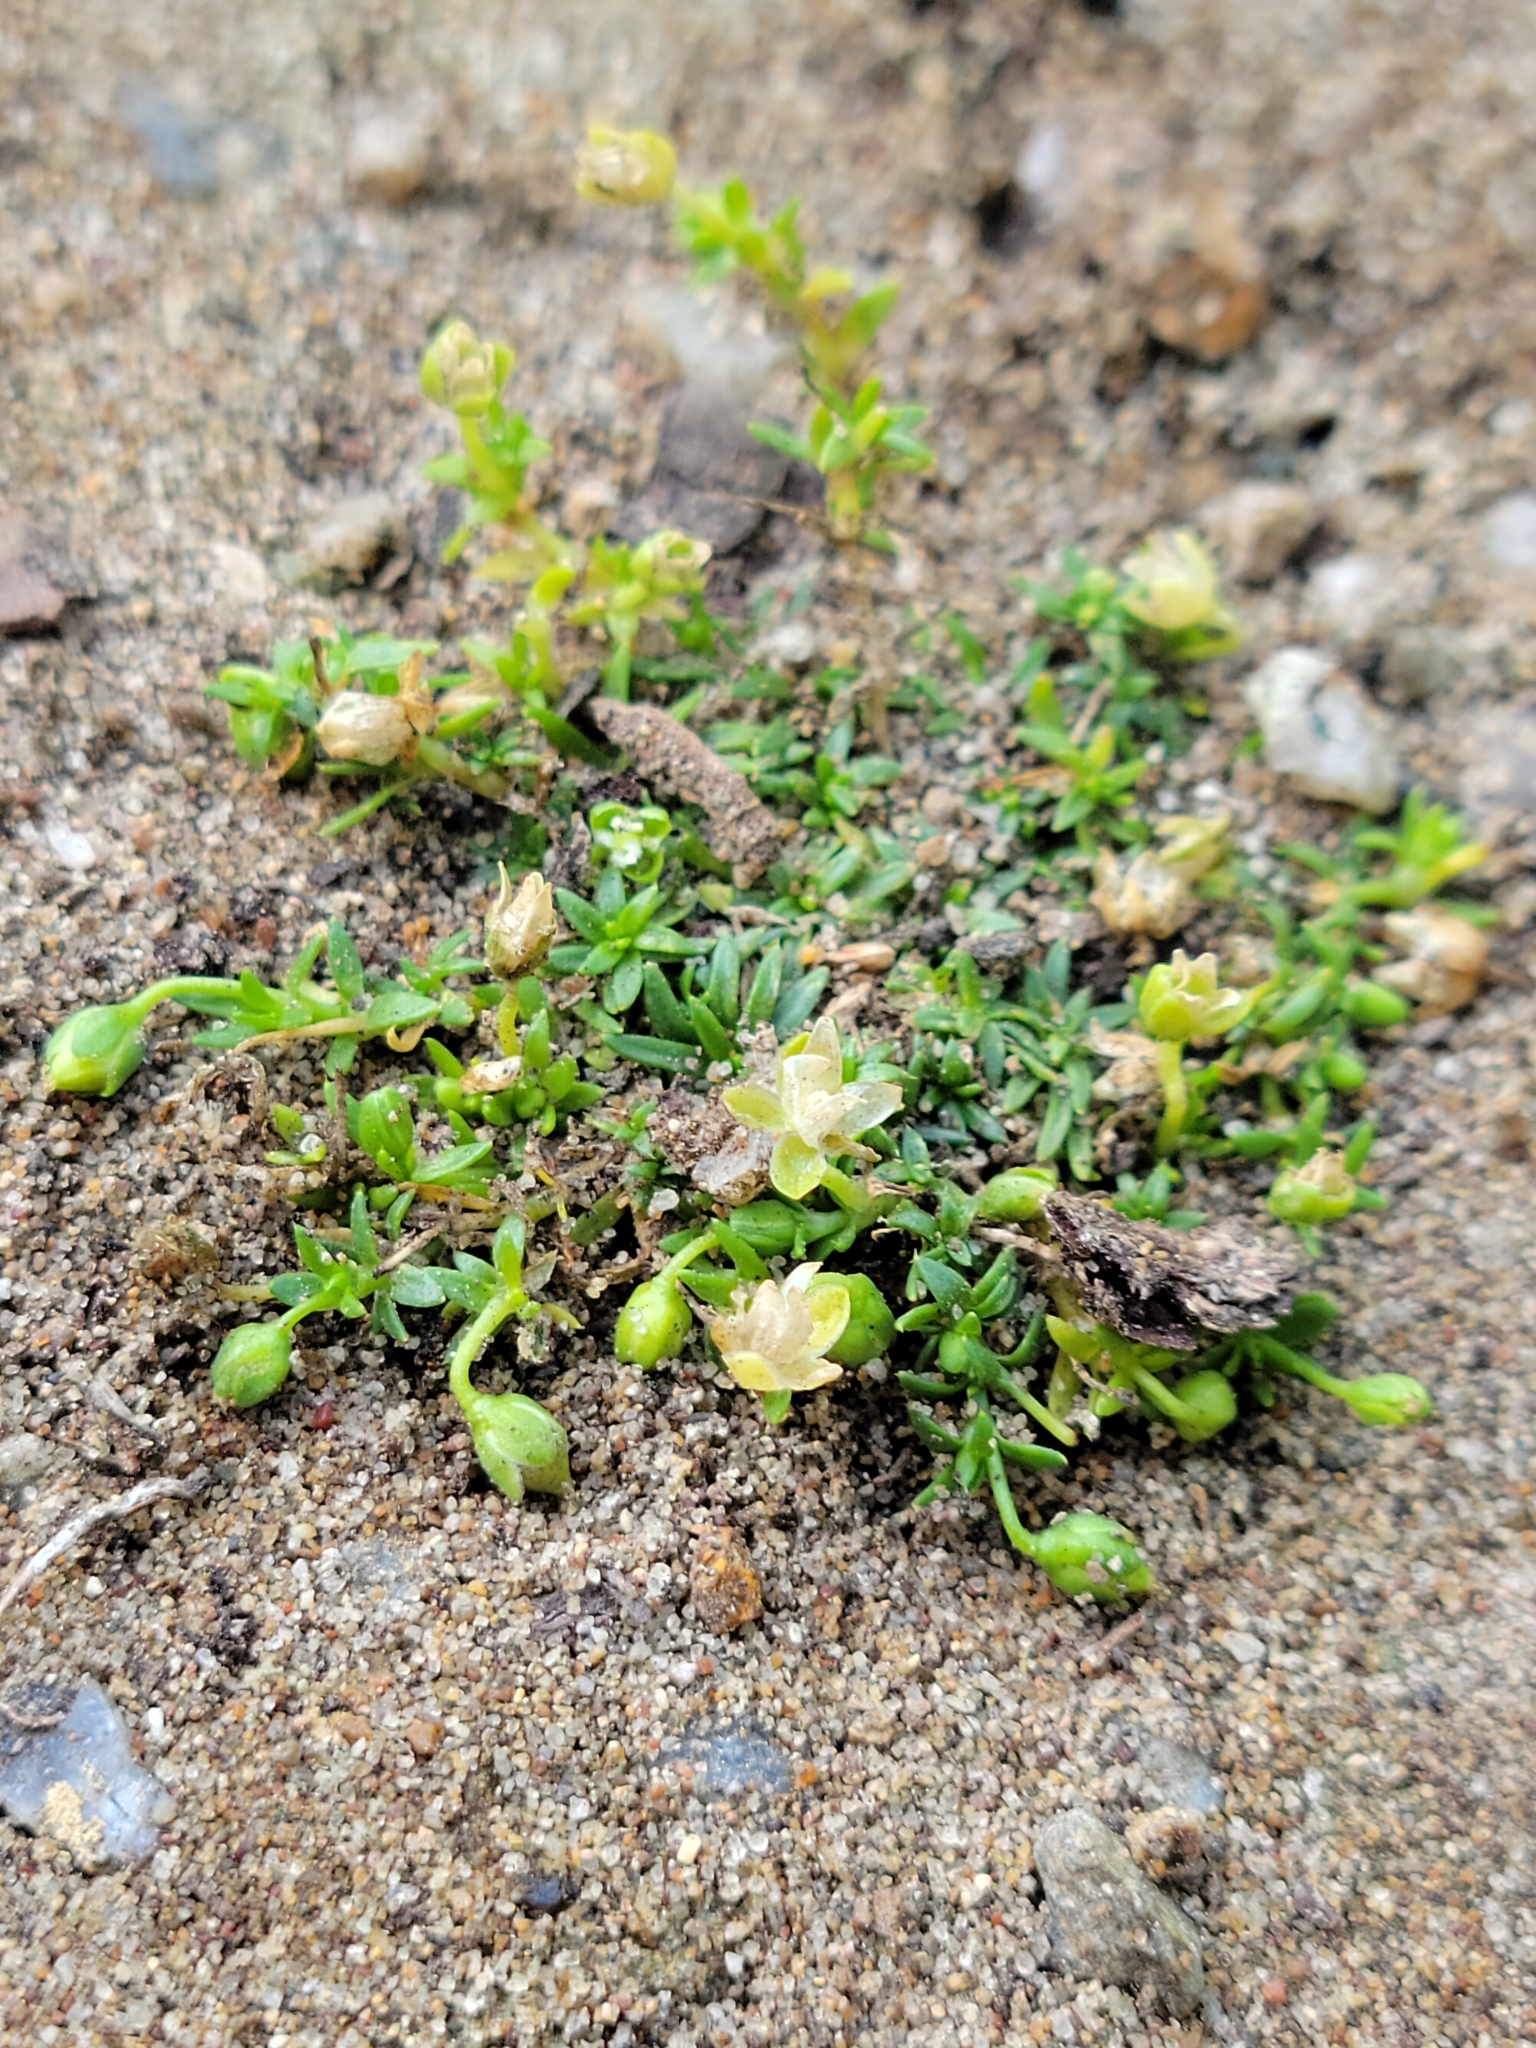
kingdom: Plantae
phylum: Tracheophyta
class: Magnoliopsida
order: Caryophyllales
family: Caryophyllaceae
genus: Sagina
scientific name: Sagina apetala
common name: Annual pearlwort
